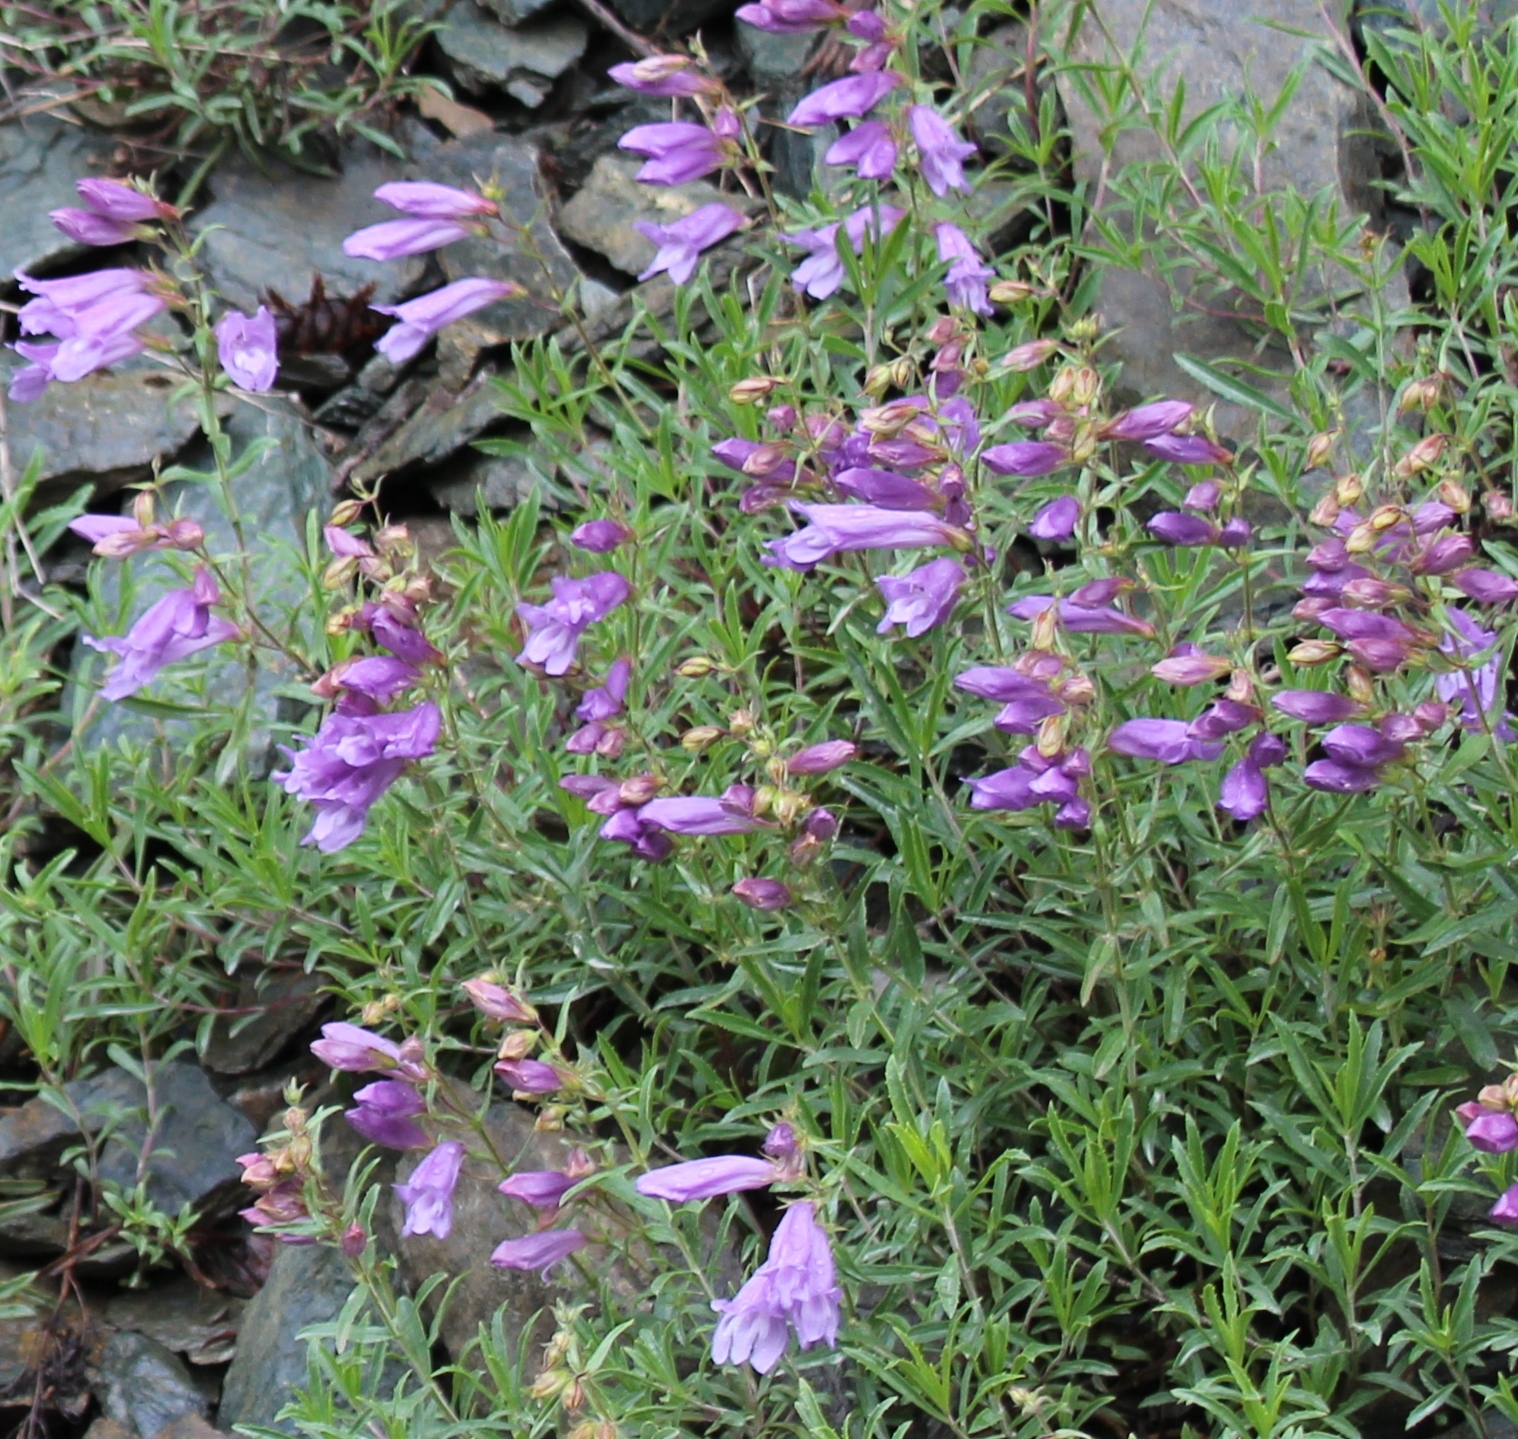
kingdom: Plantae
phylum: Tracheophyta
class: Magnoliopsida
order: Lamiales
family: Plantaginaceae
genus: Penstemon
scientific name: Penstemon fruticosus
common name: Bush penstemon
